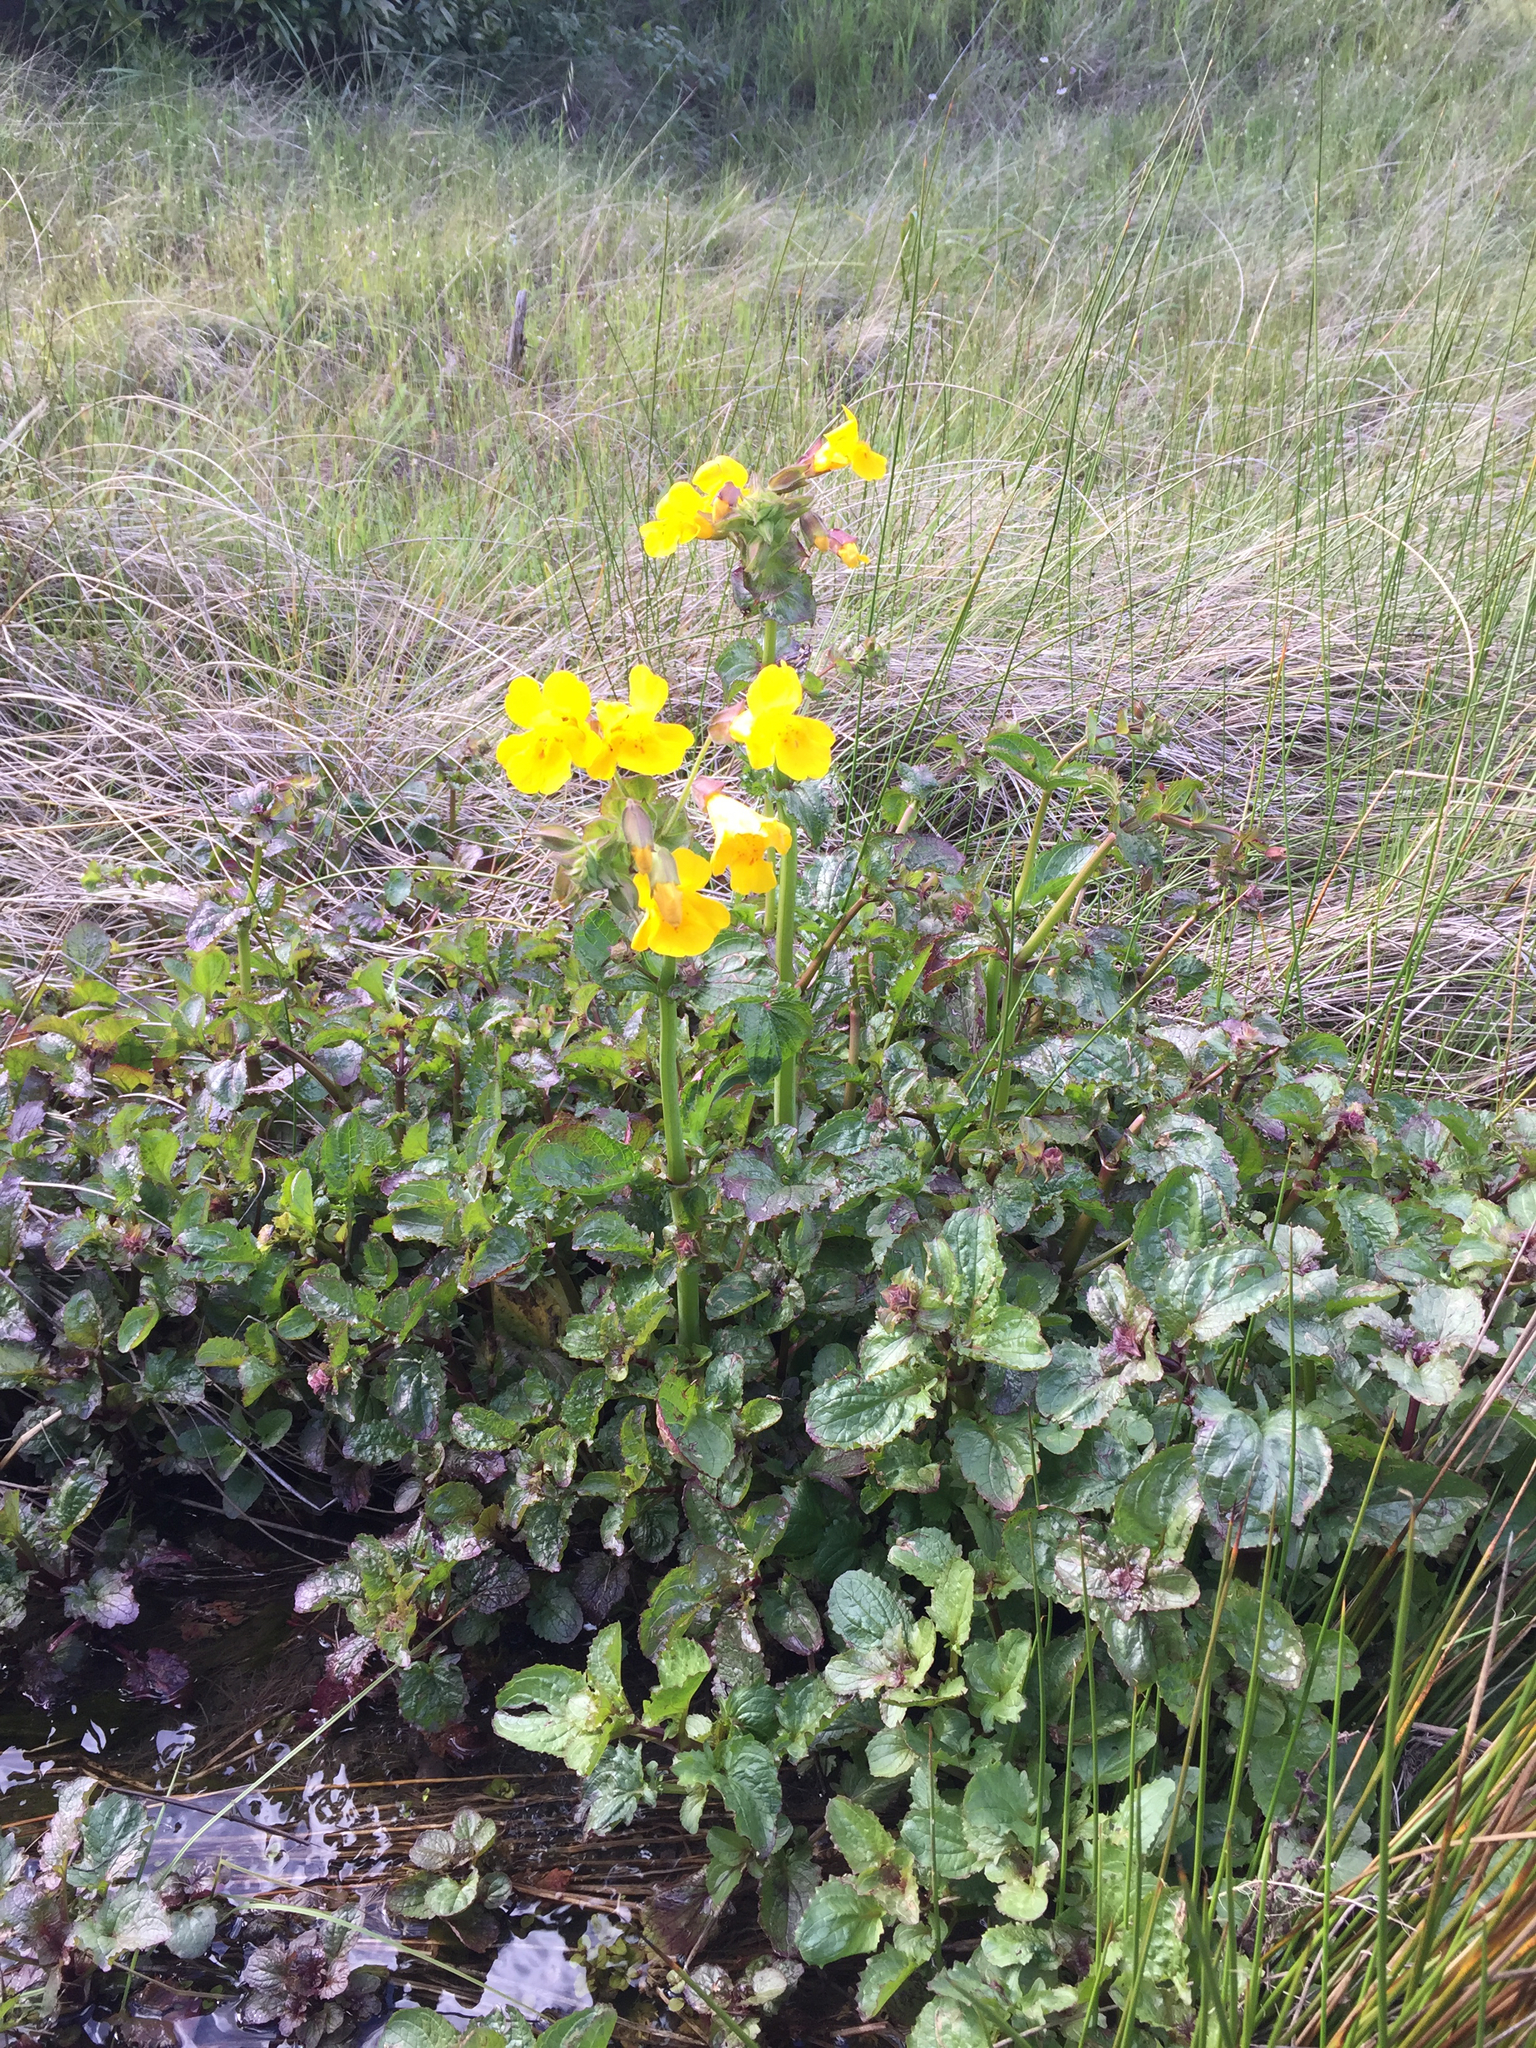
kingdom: Plantae
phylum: Tracheophyta
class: Magnoliopsida
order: Lamiales
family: Phrymaceae
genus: Erythranthe
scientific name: Erythranthe guttata
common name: Monkeyflower
